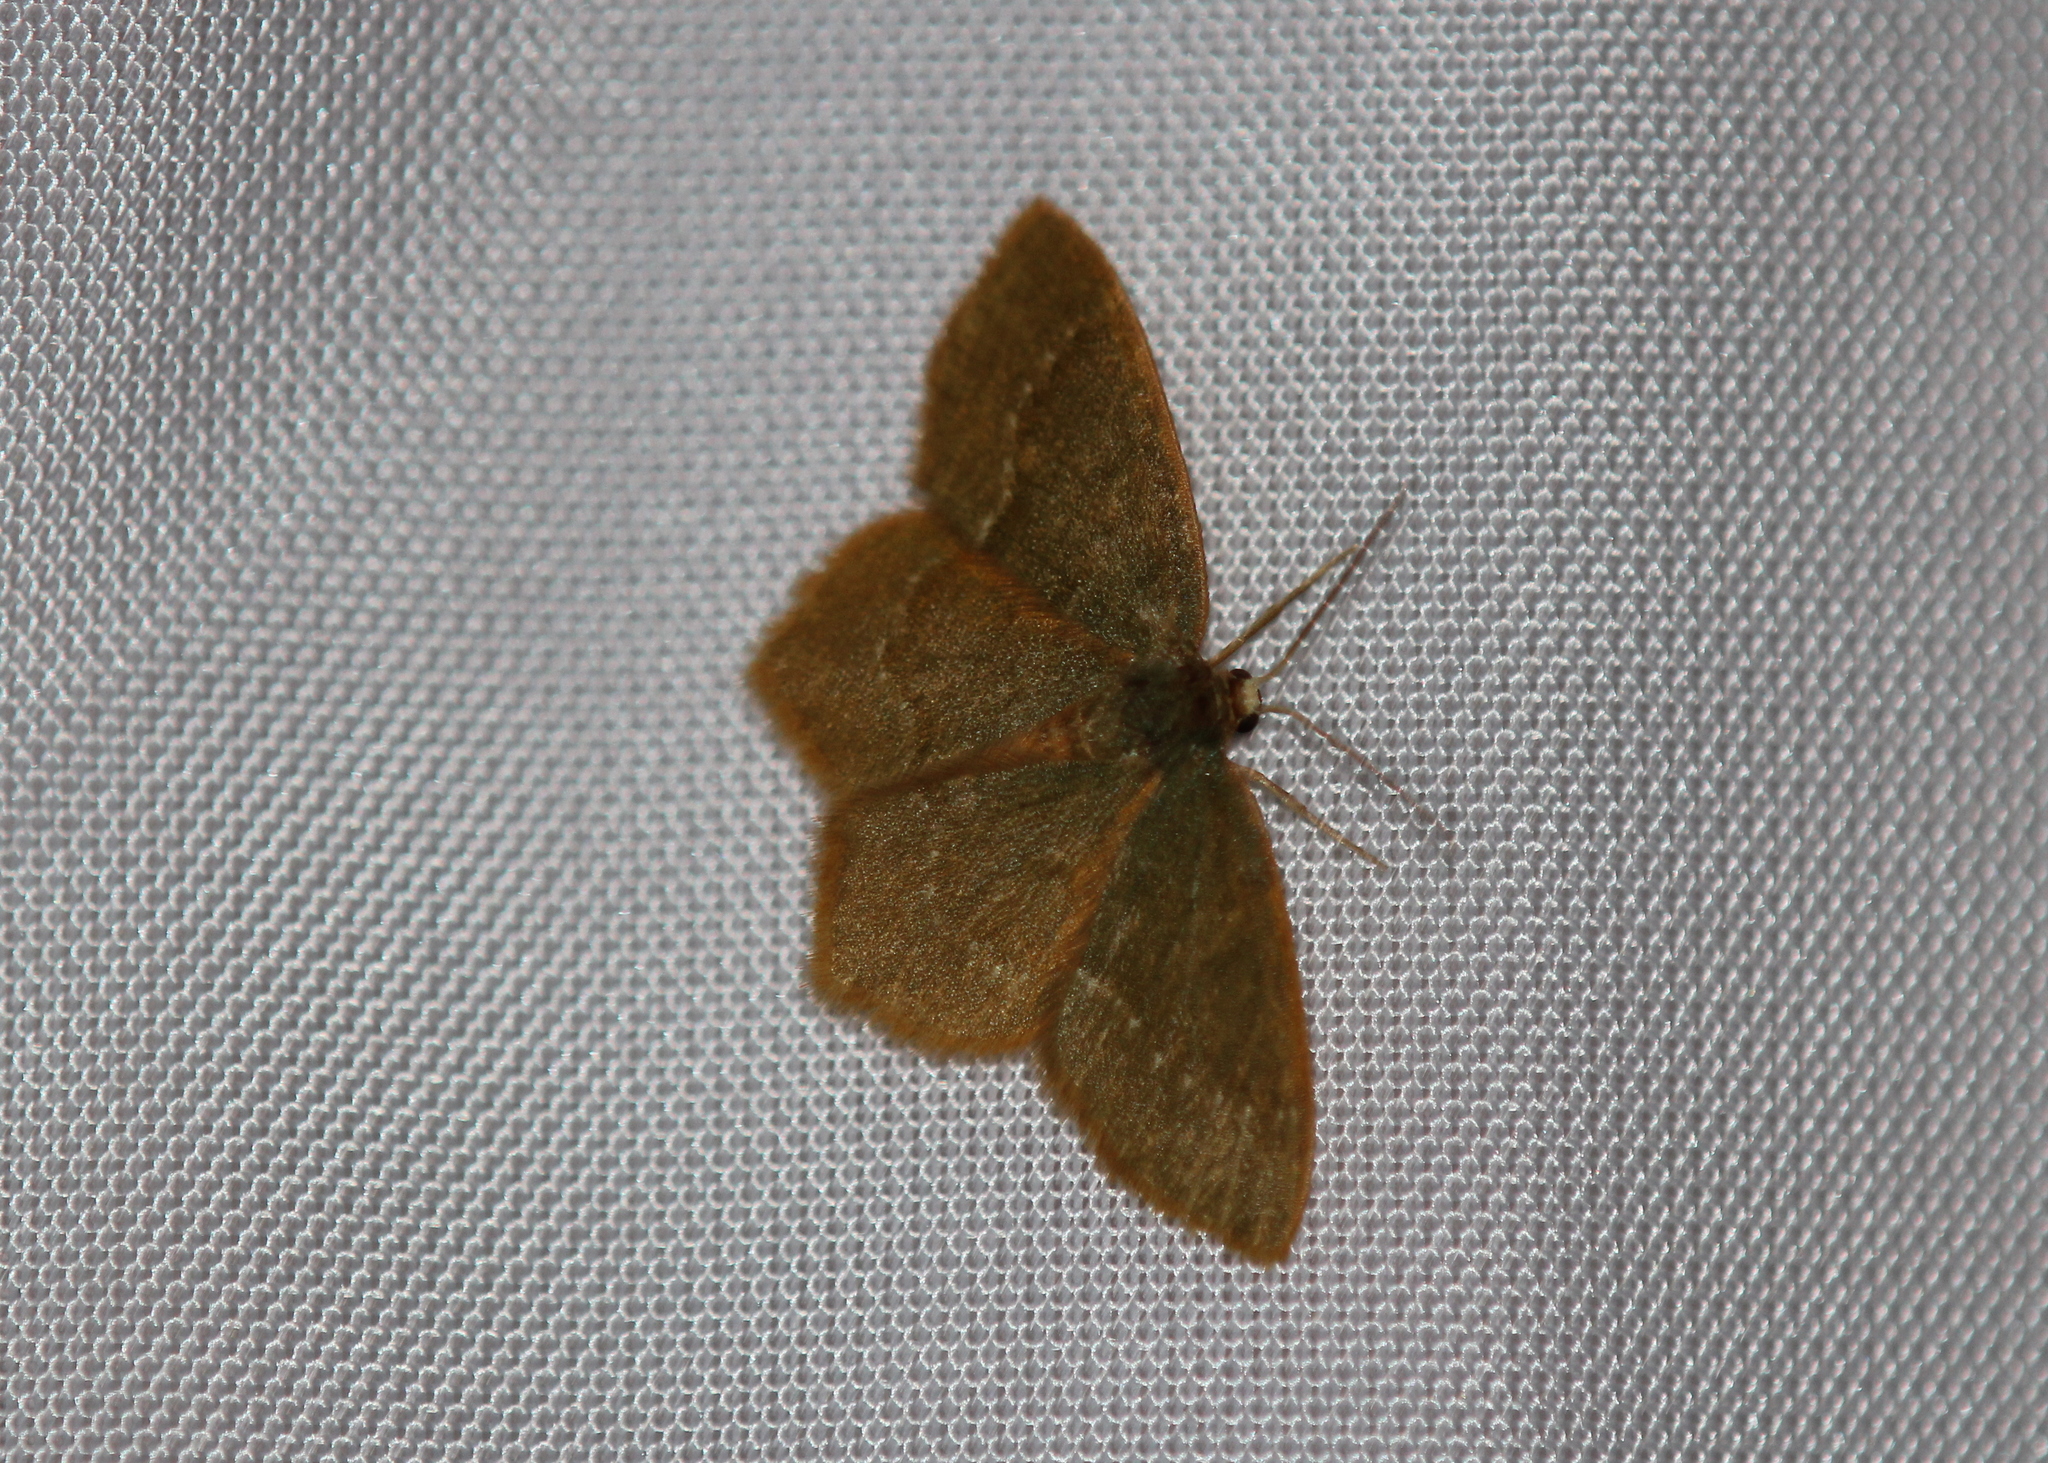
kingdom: Animalia
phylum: Arthropoda
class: Insecta
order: Lepidoptera
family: Geometridae
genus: Thalera
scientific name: Thalera pistasciaria
